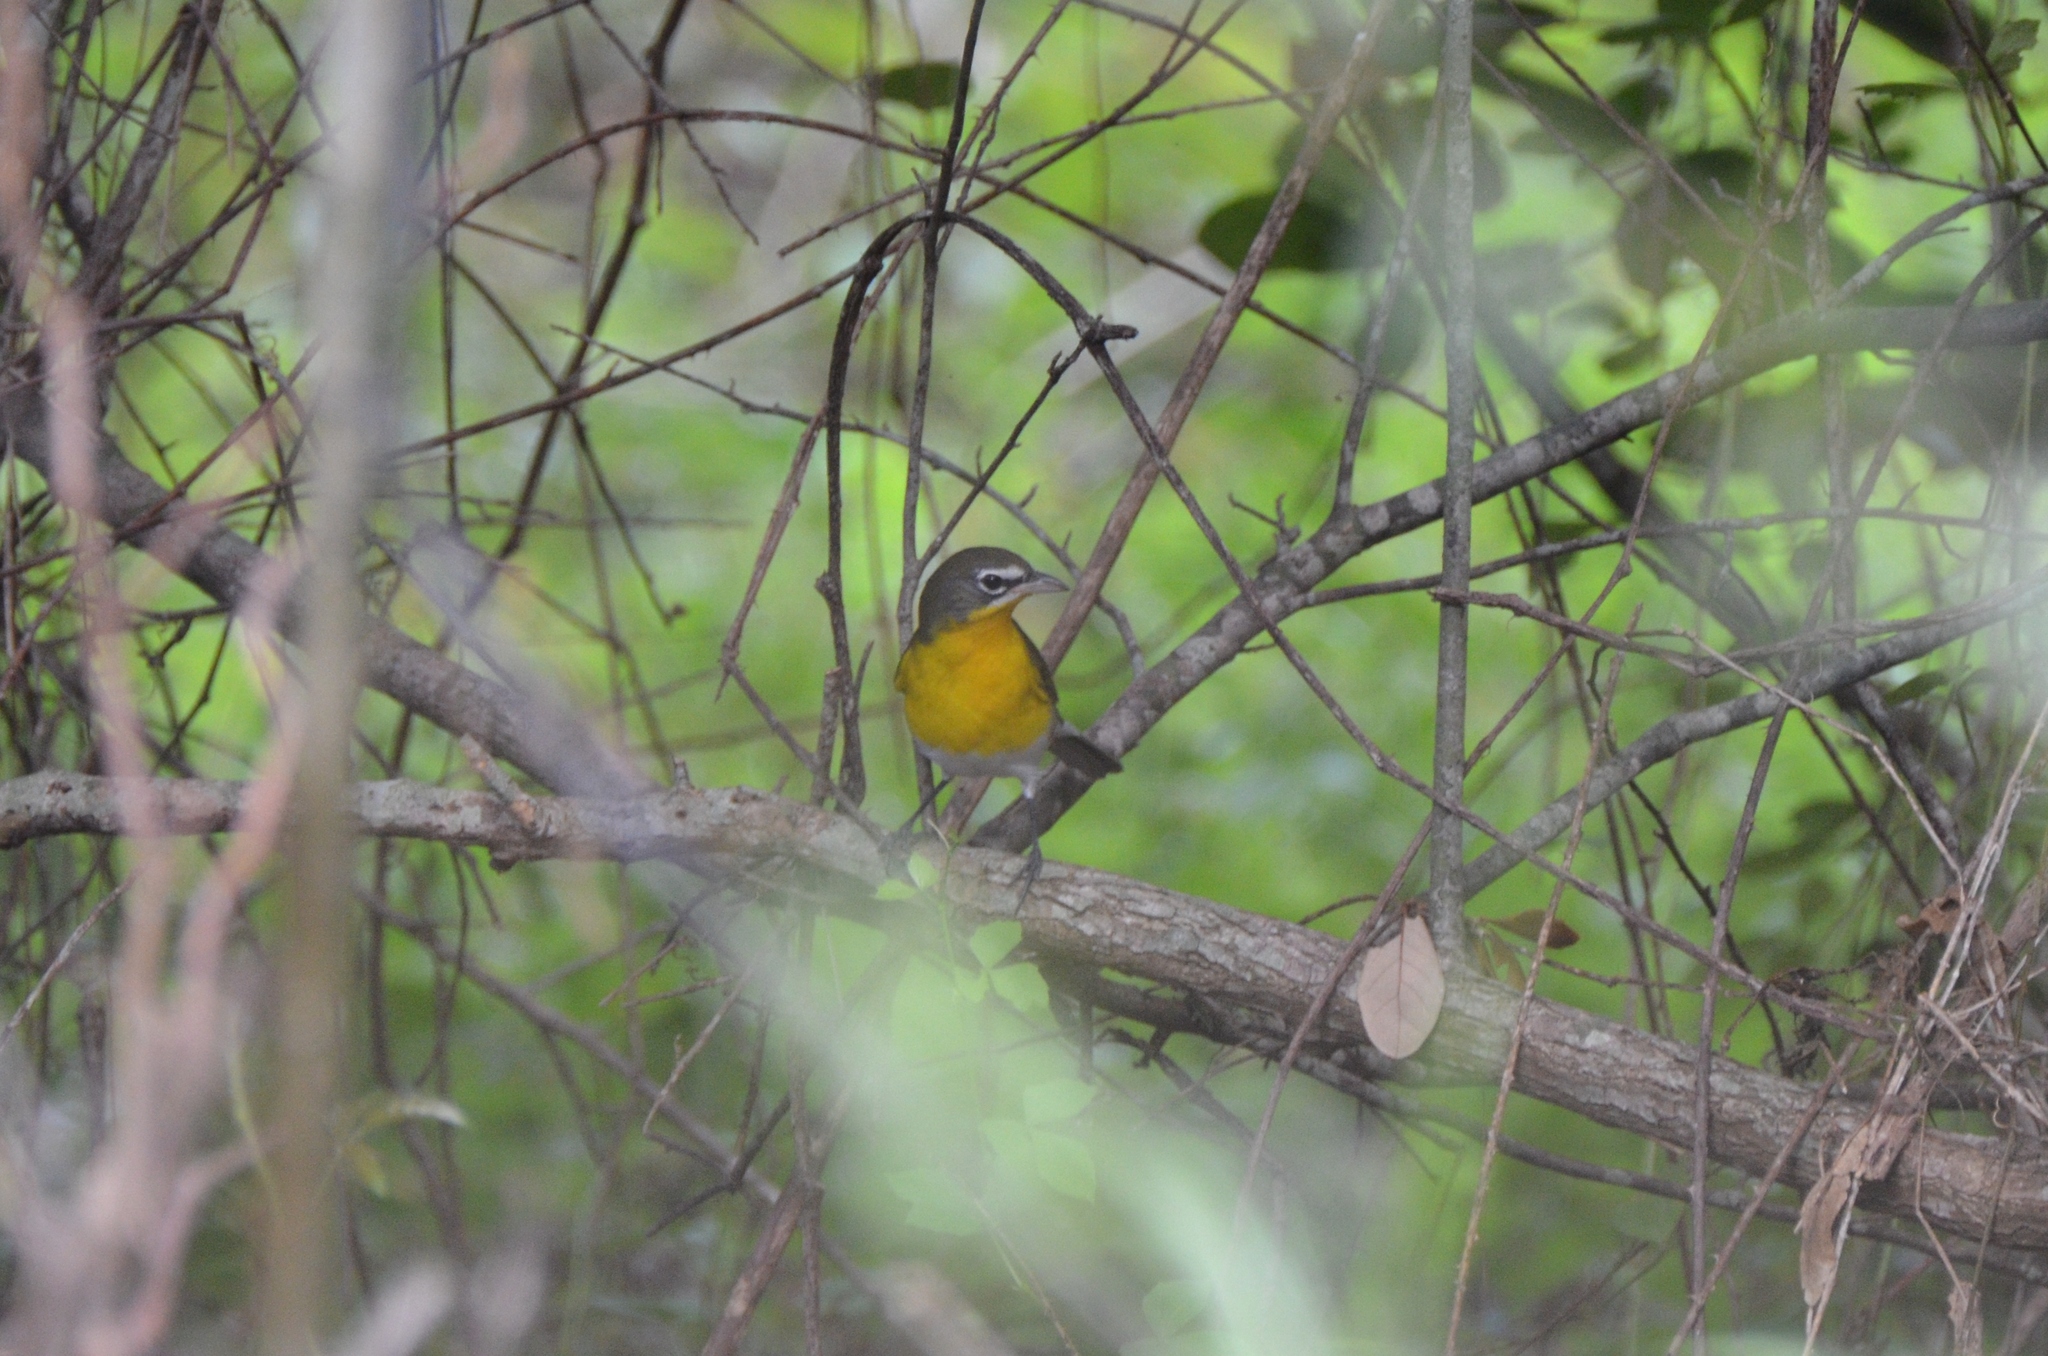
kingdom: Animalia
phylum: Chordata
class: Aves
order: Passeriformes
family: Parulidae
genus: Icteria
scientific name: Icteria virens
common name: Yellow-breasted chat
